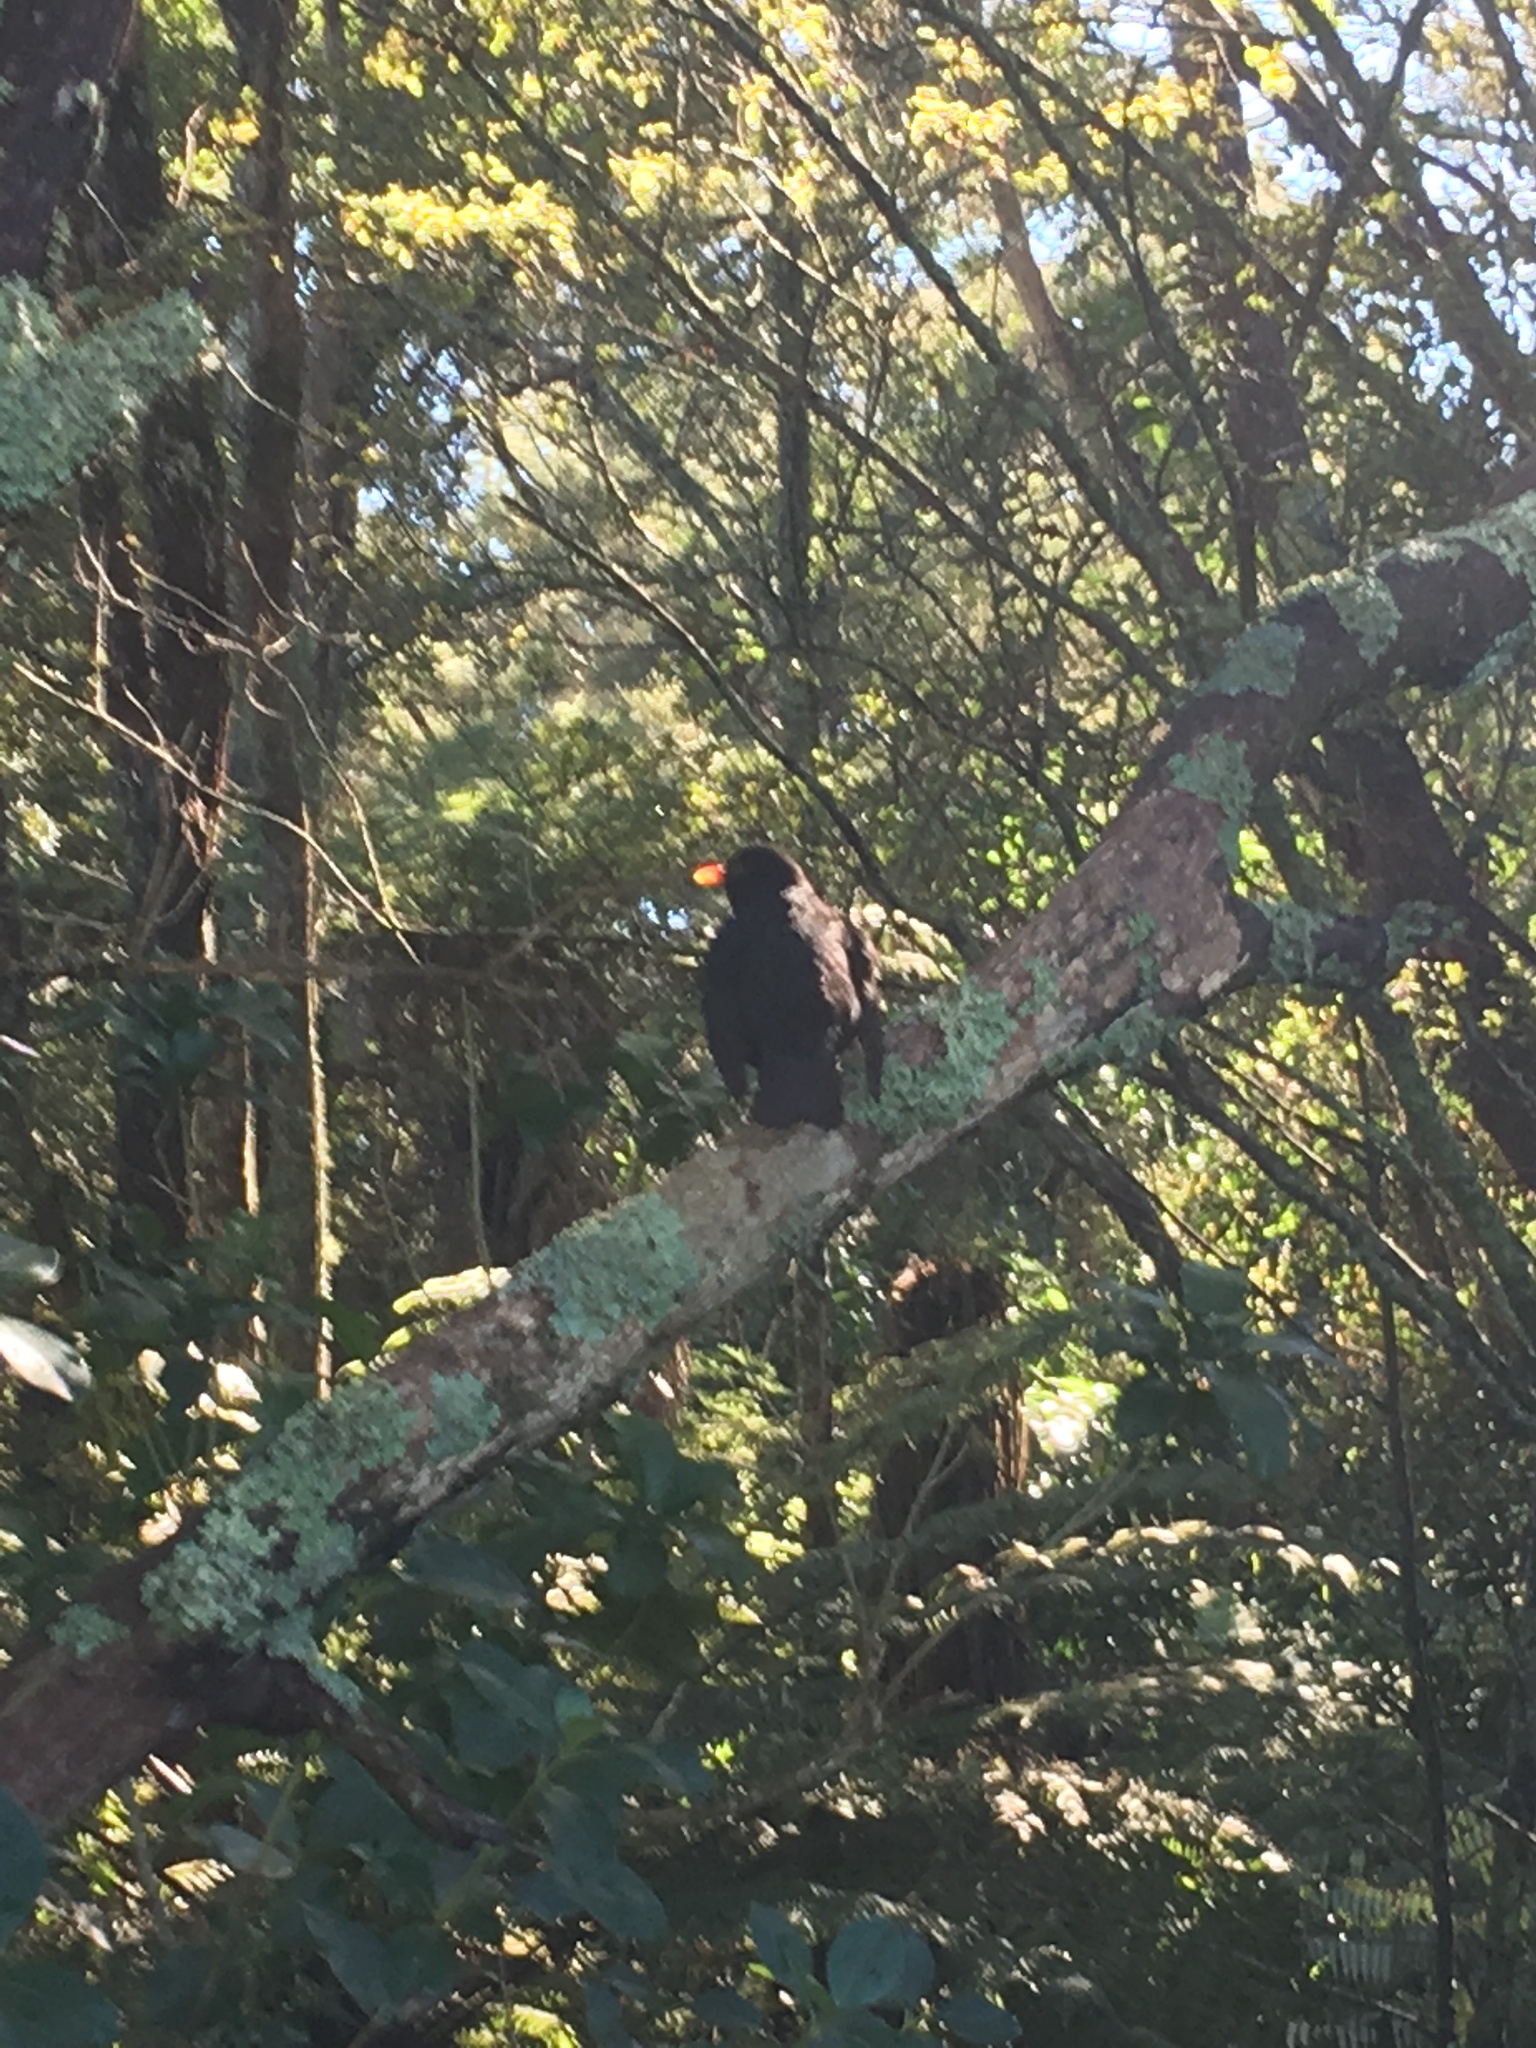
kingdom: Animalia
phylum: Chordata
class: Aves
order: Passeriformes
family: Turdidae
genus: Turdus
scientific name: Turdus merula
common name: Common blackbird
